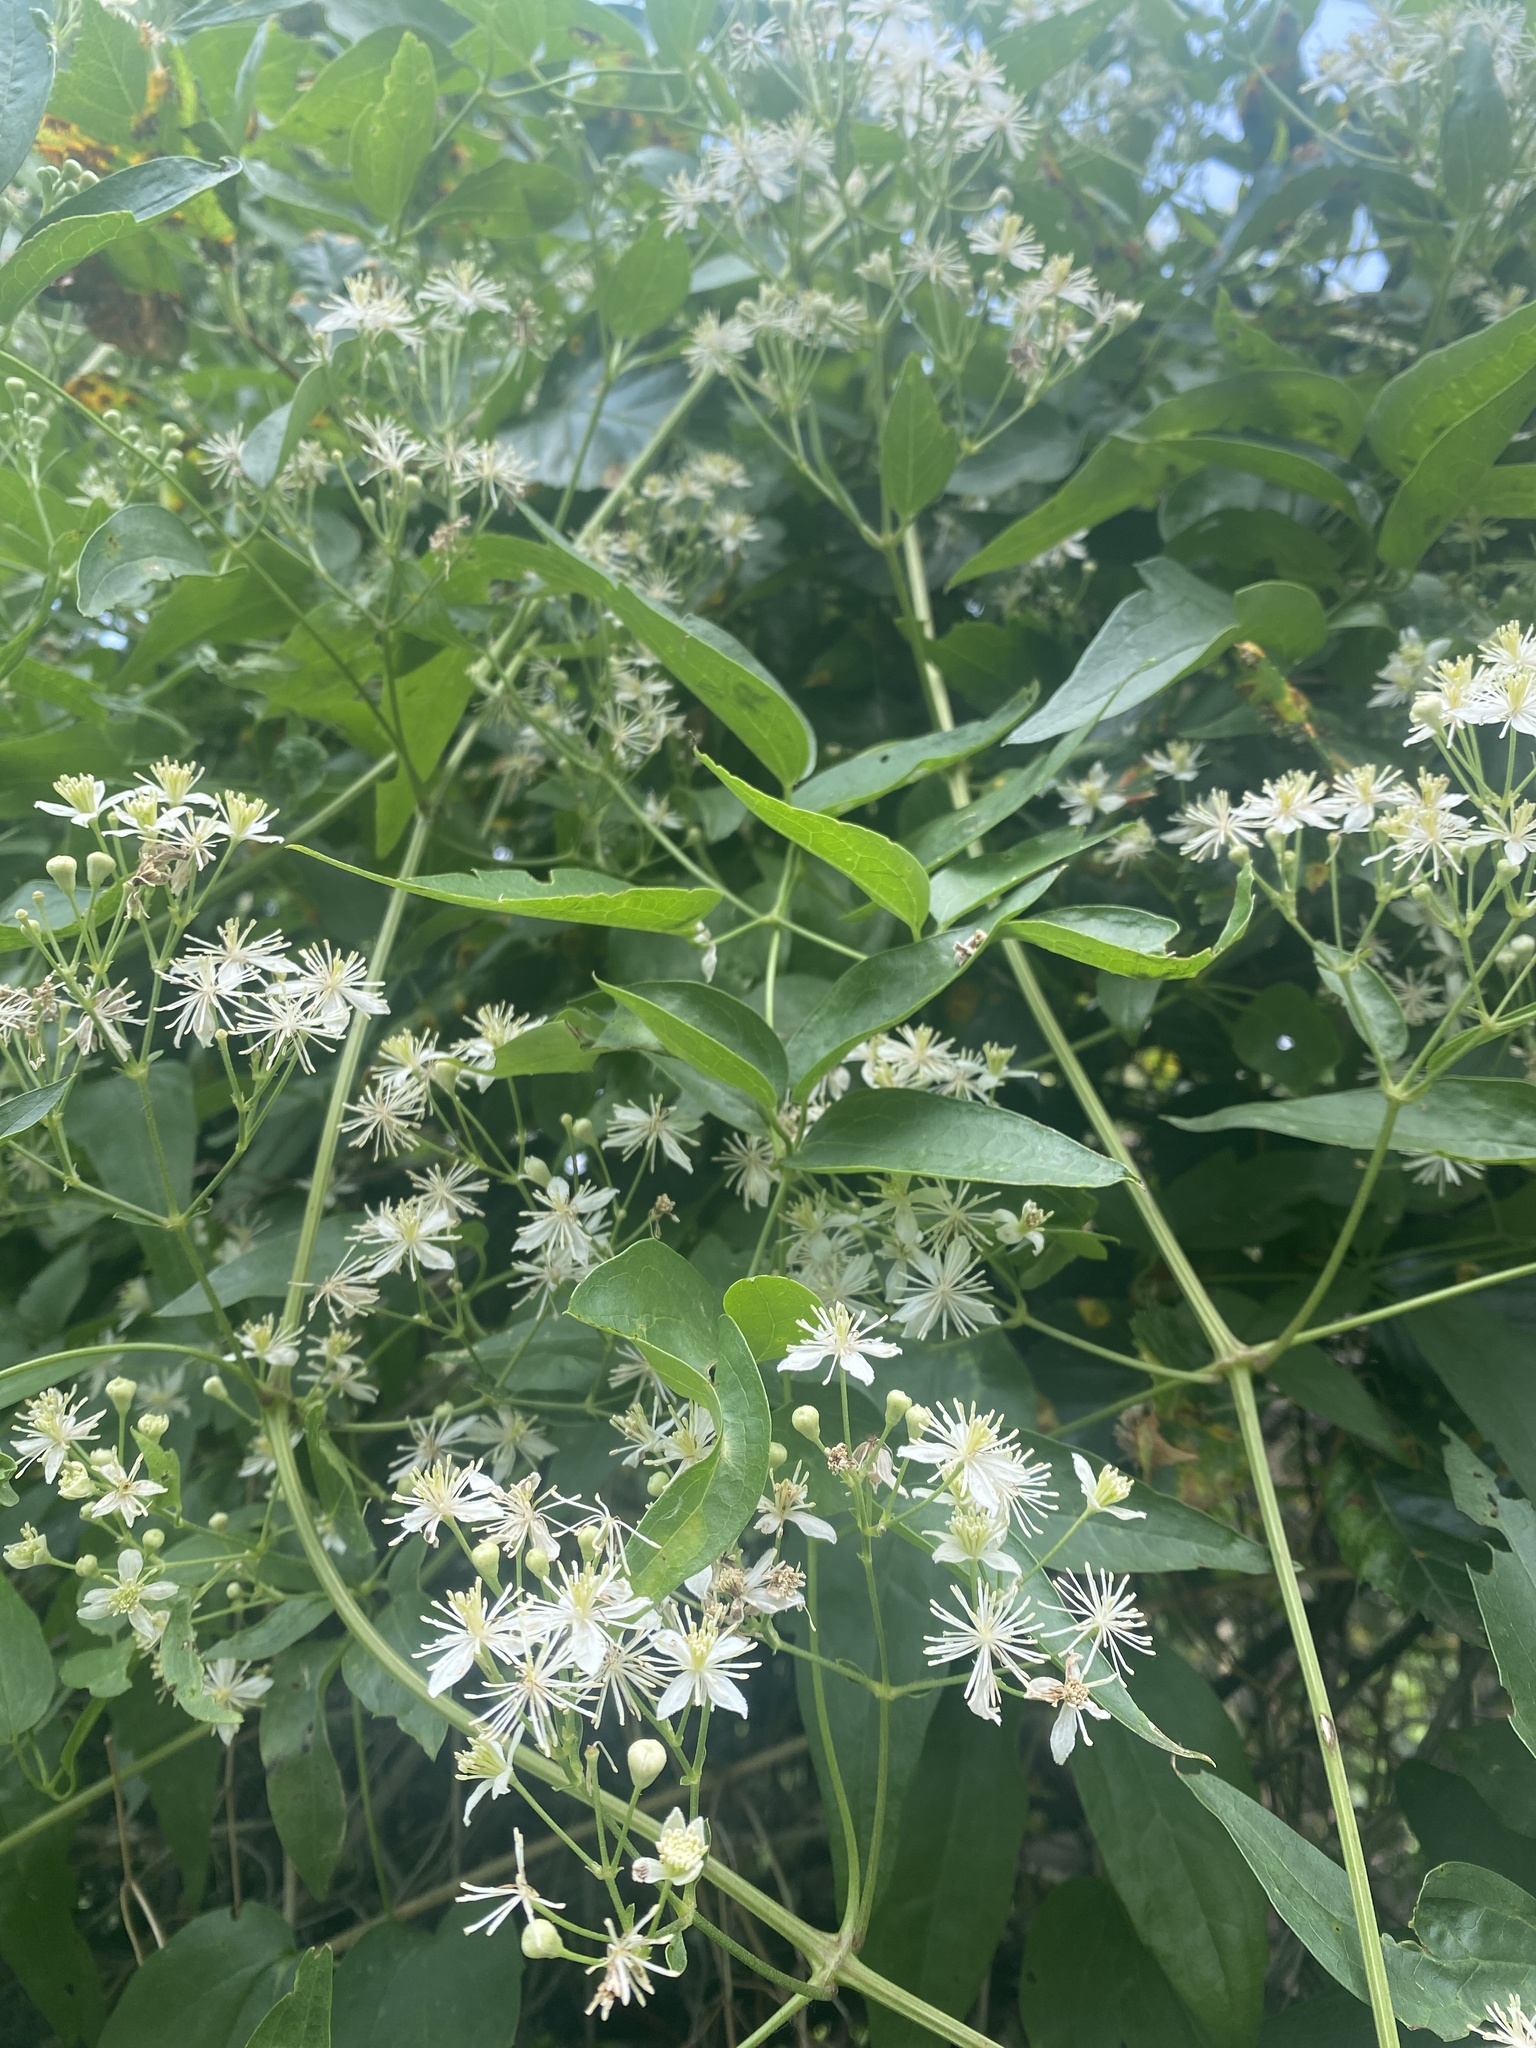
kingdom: Plantae
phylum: Tracheophyta
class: Magnoliopsida
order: Ranunculales
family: Ranunculaceae
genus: Clematis
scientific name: Clematis ligusticifolia
